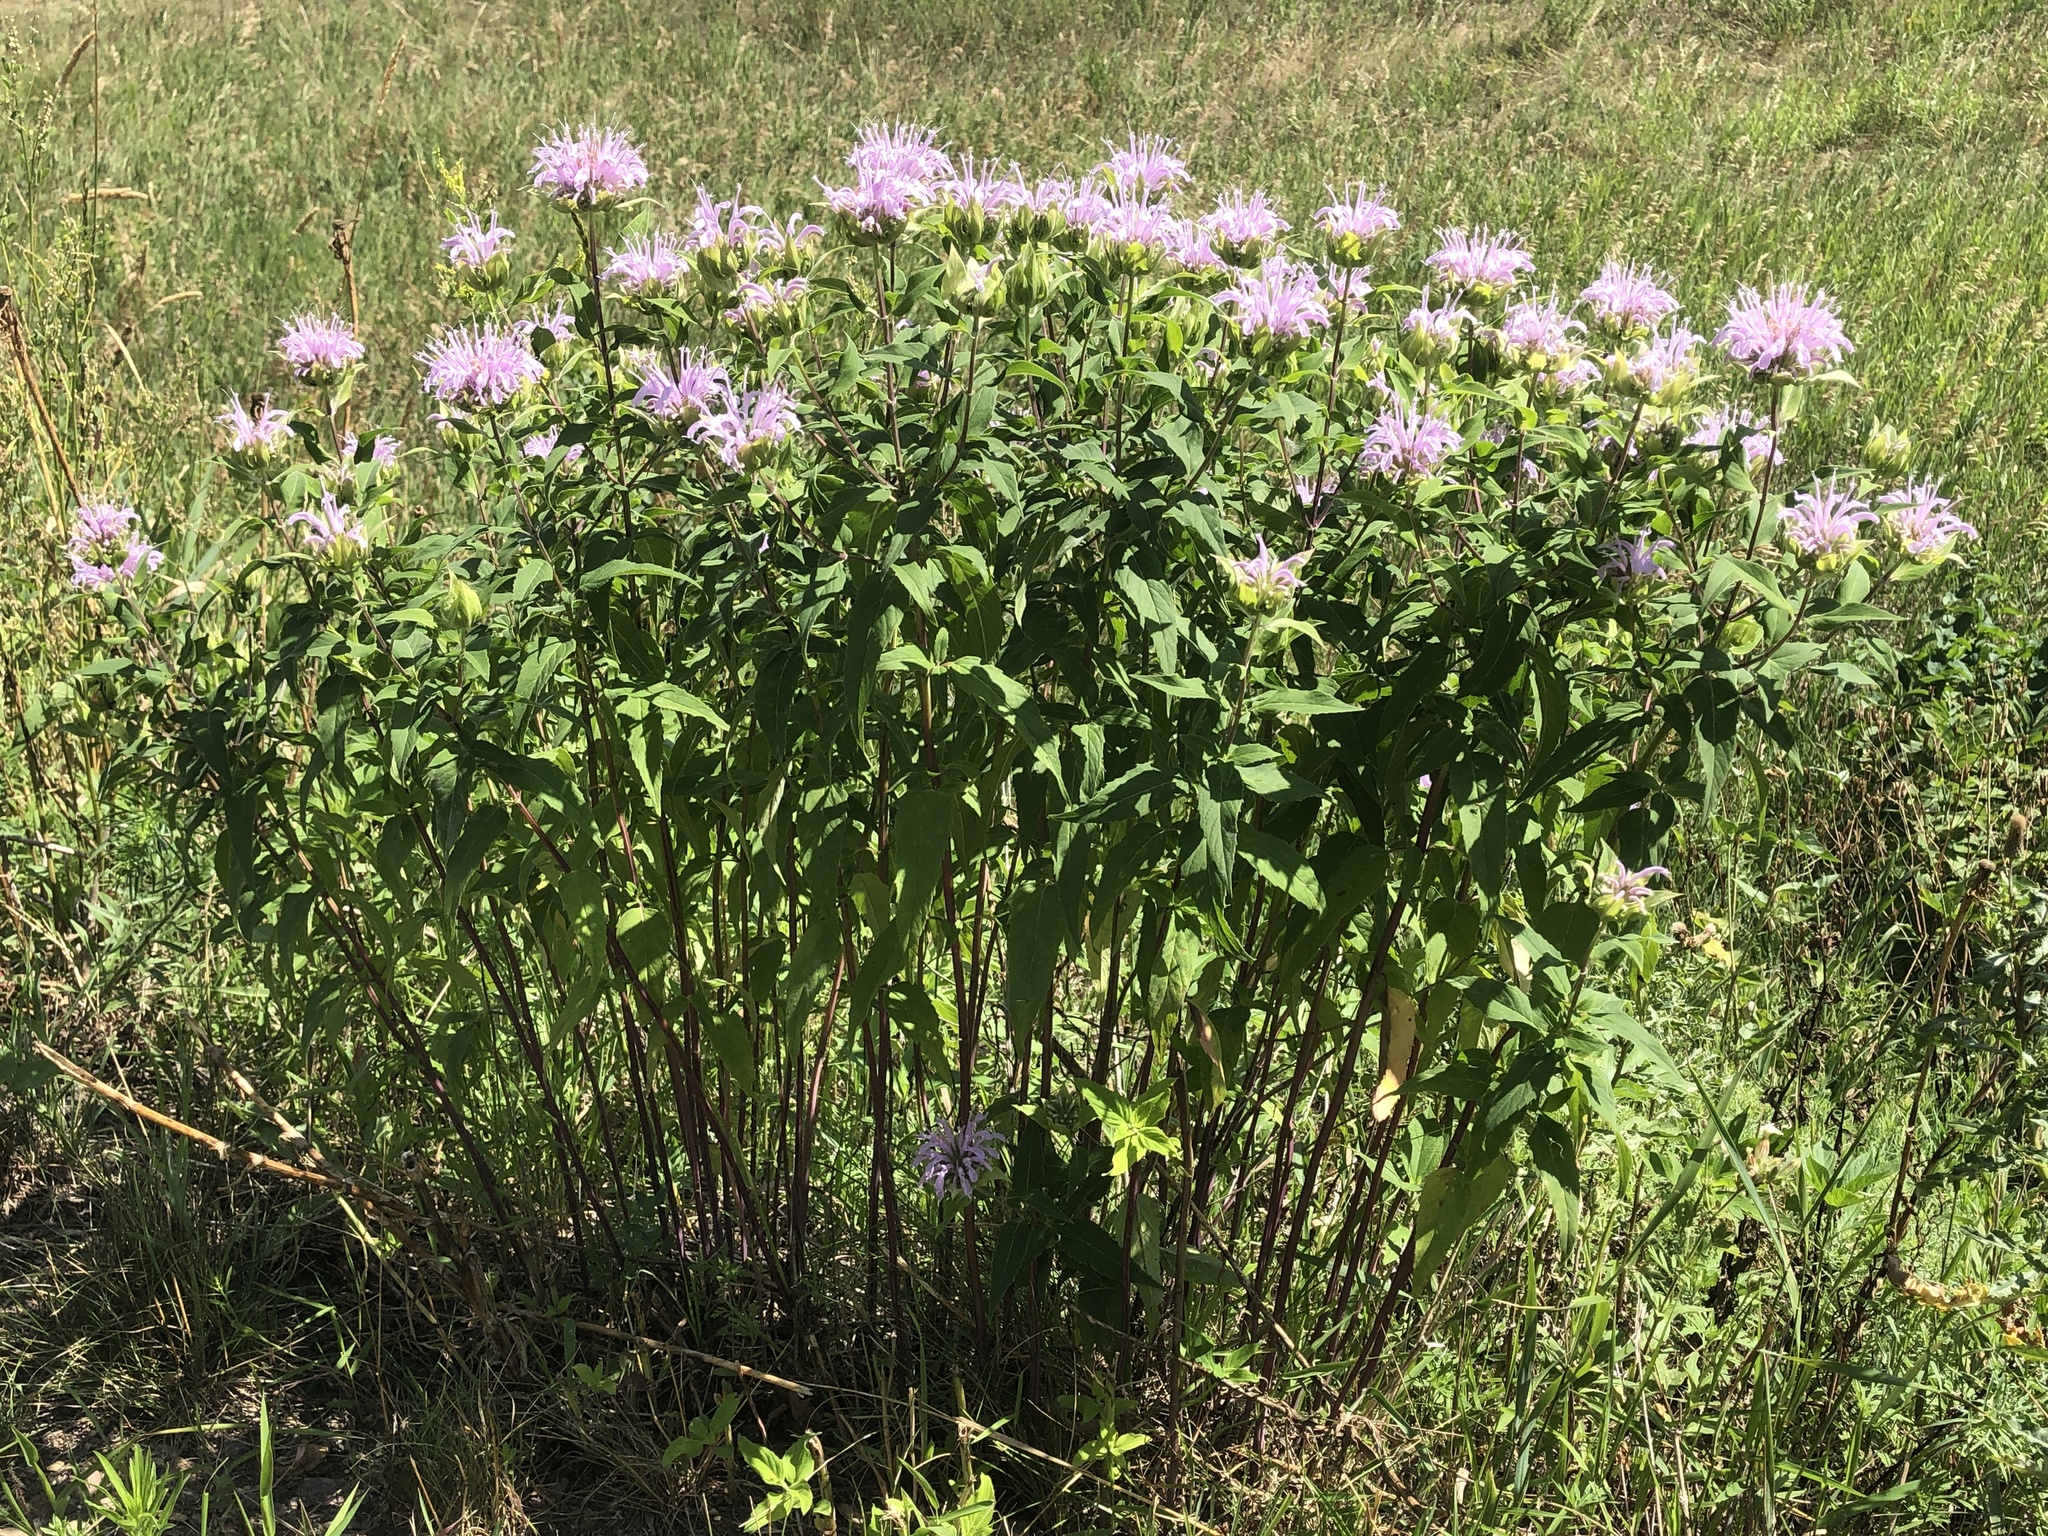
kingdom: Plantae
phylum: Tracheophyta
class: Magnoliopsida
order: Lamiales
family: Lamiaceae
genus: Monarda
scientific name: Monarda fistulosa
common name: Purple beebalm
